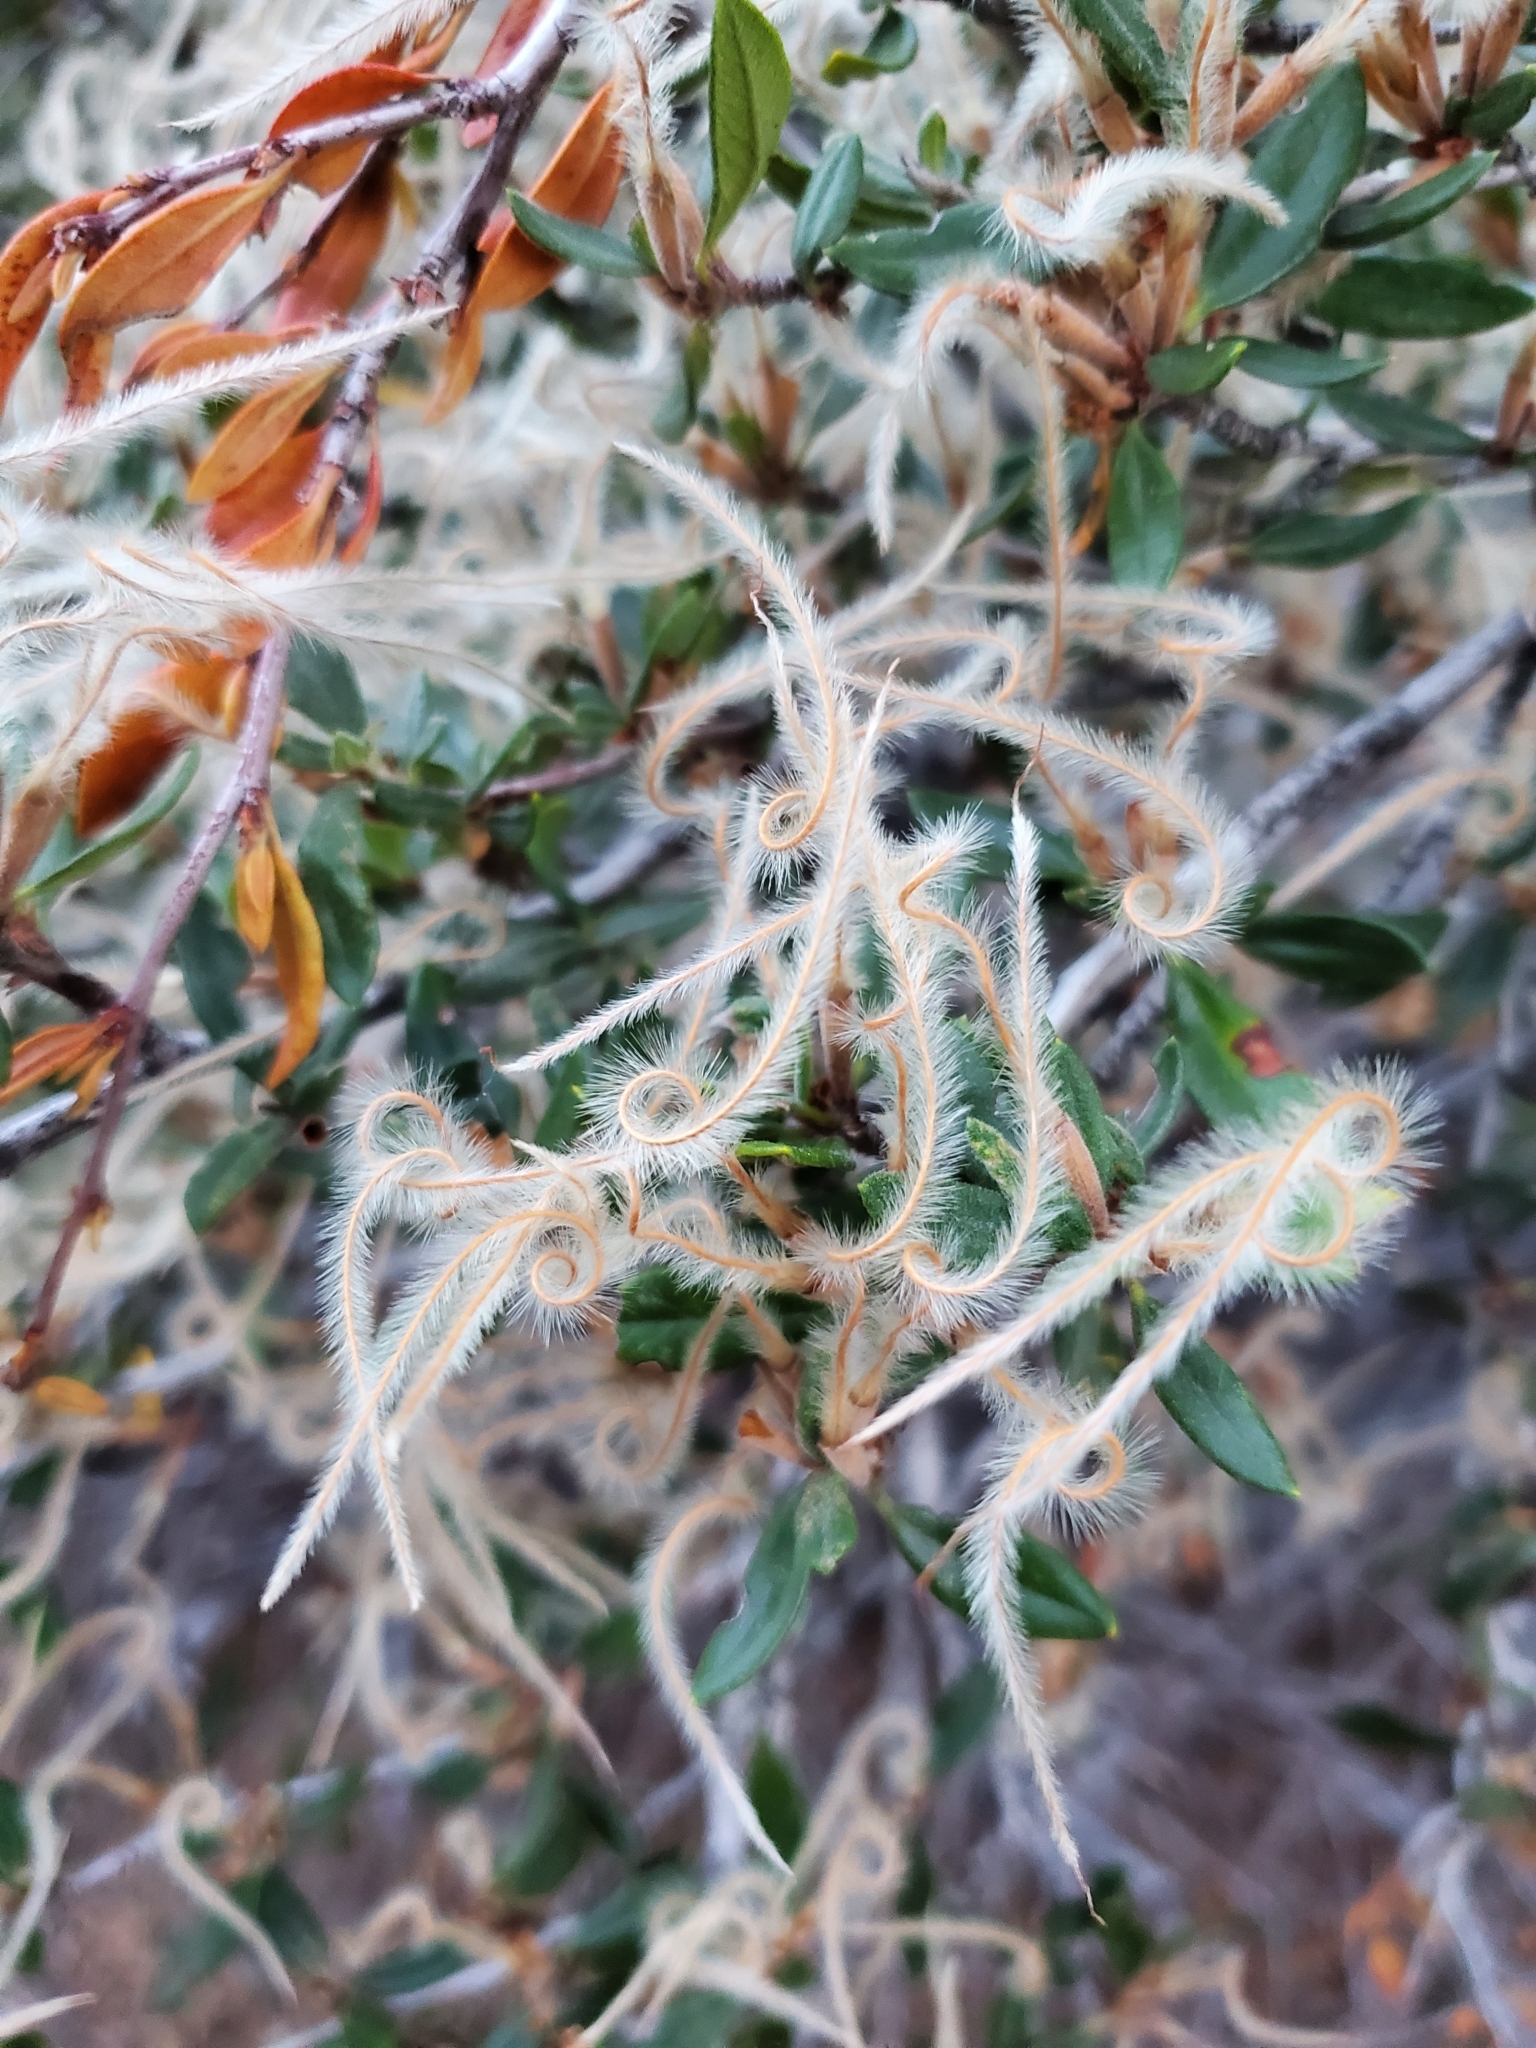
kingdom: Plantae
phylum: Tracheophyta
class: Magnoliopsida
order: Rosales
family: Rosaceae
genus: Cercocarpus
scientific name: Cercocarpus ledifolius
